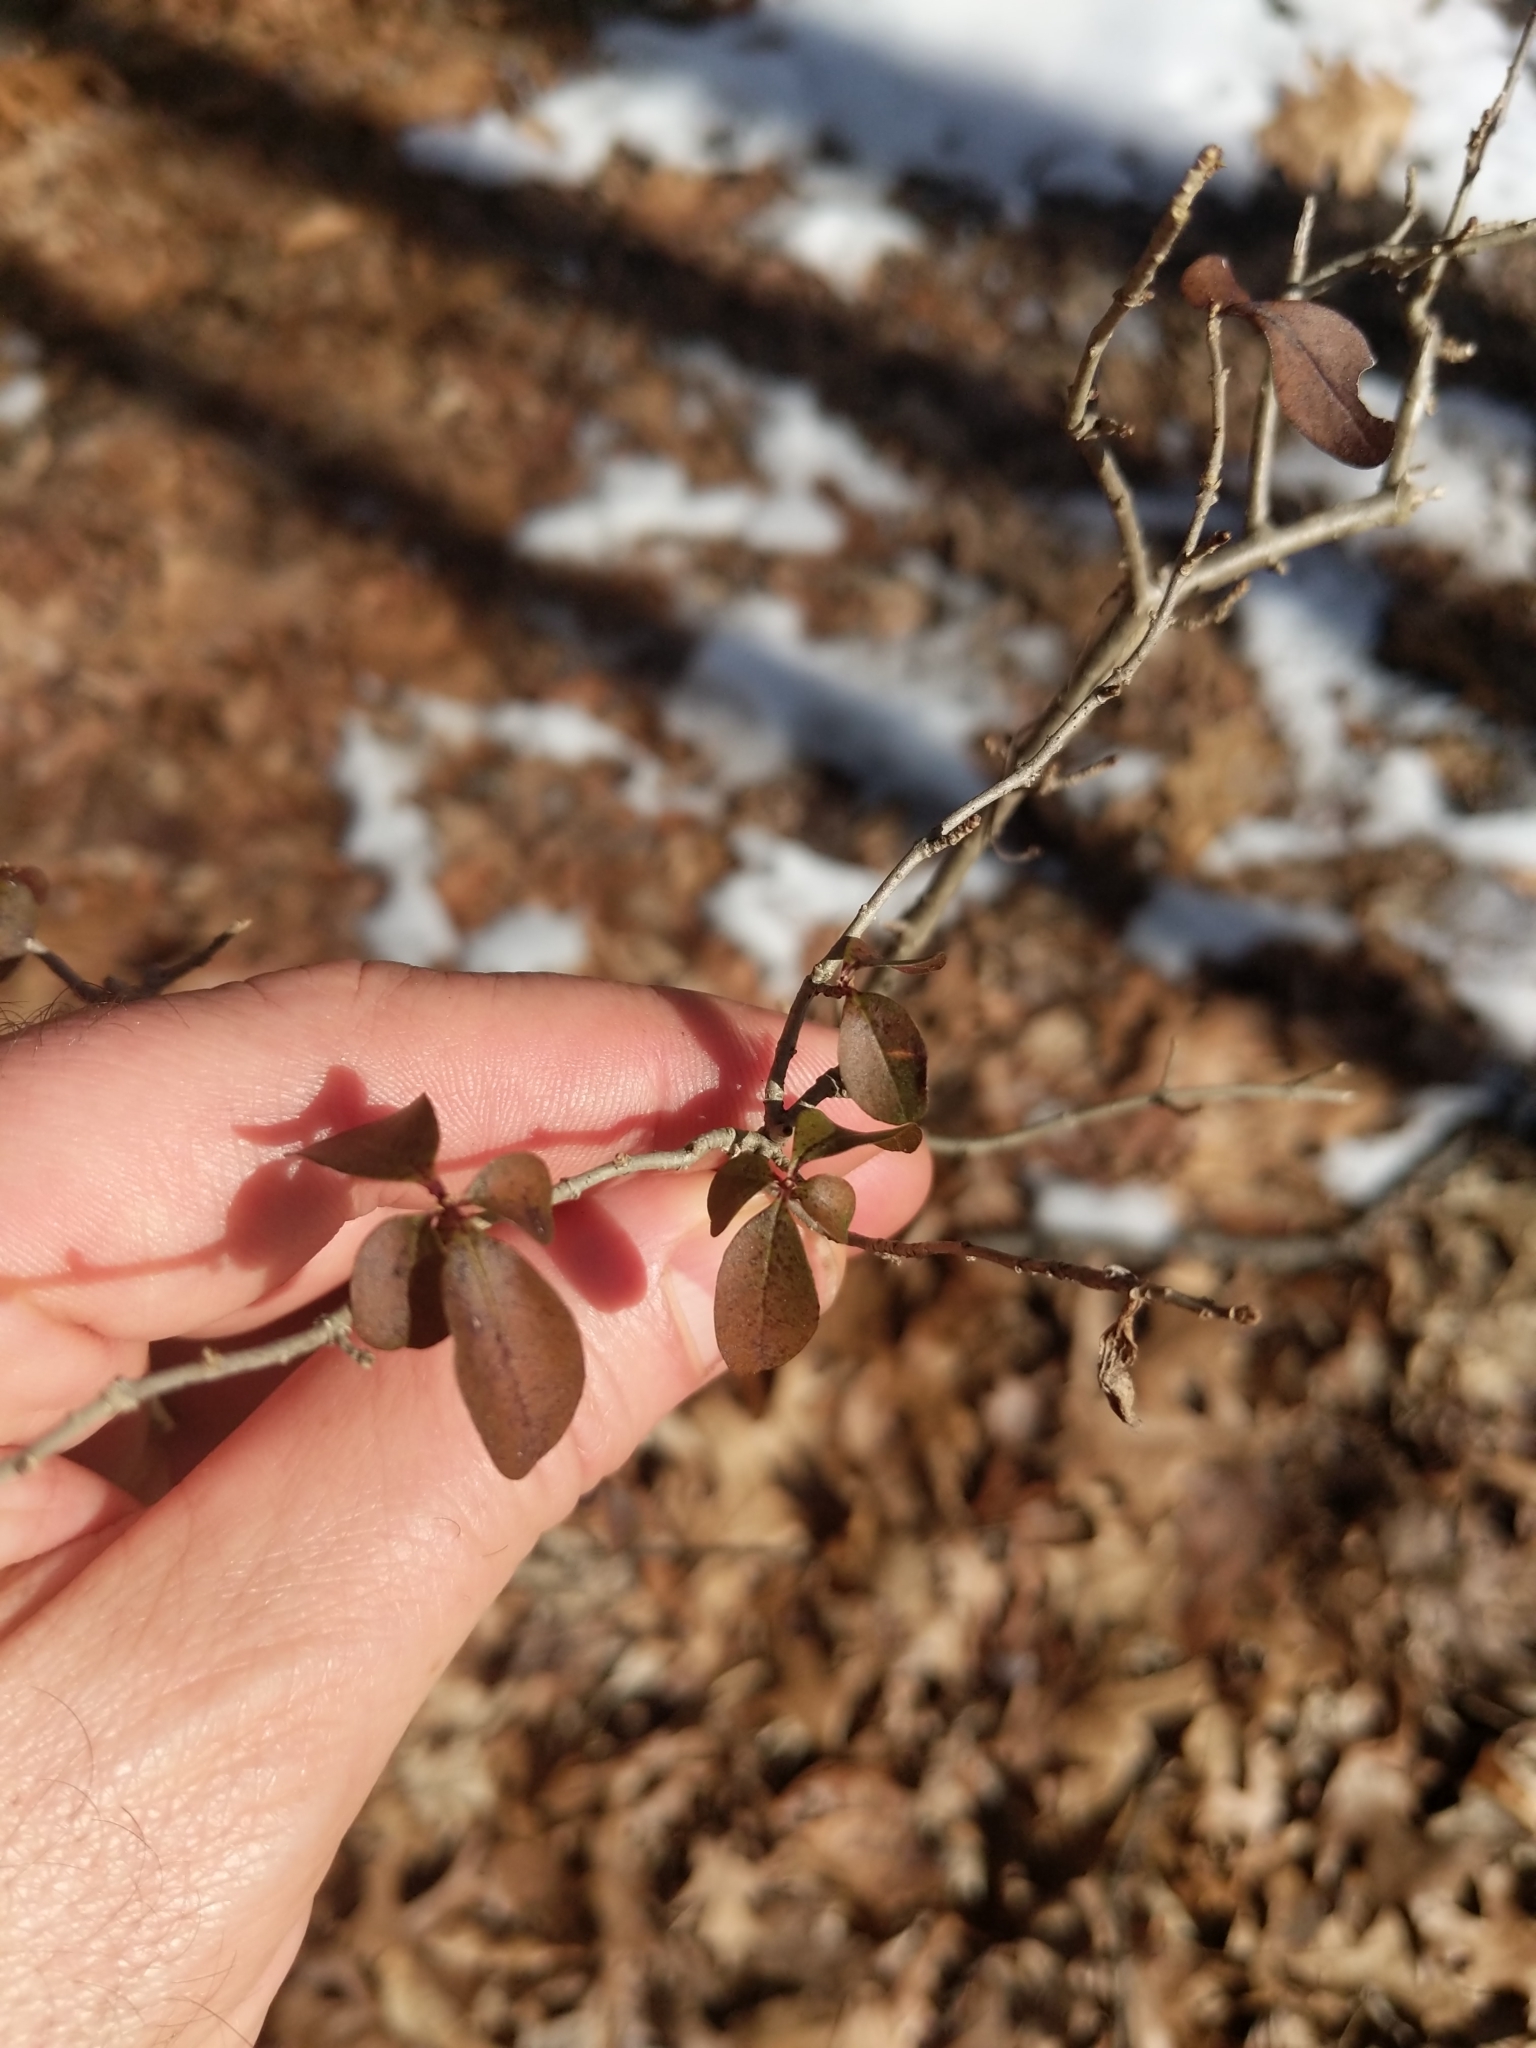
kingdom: Plantae
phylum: Tracheophyta
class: Magnoliopsida
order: Lamiales
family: Oleaceae
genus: Ligustrum
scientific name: Ligustrum obtusifolium
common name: Border privet
